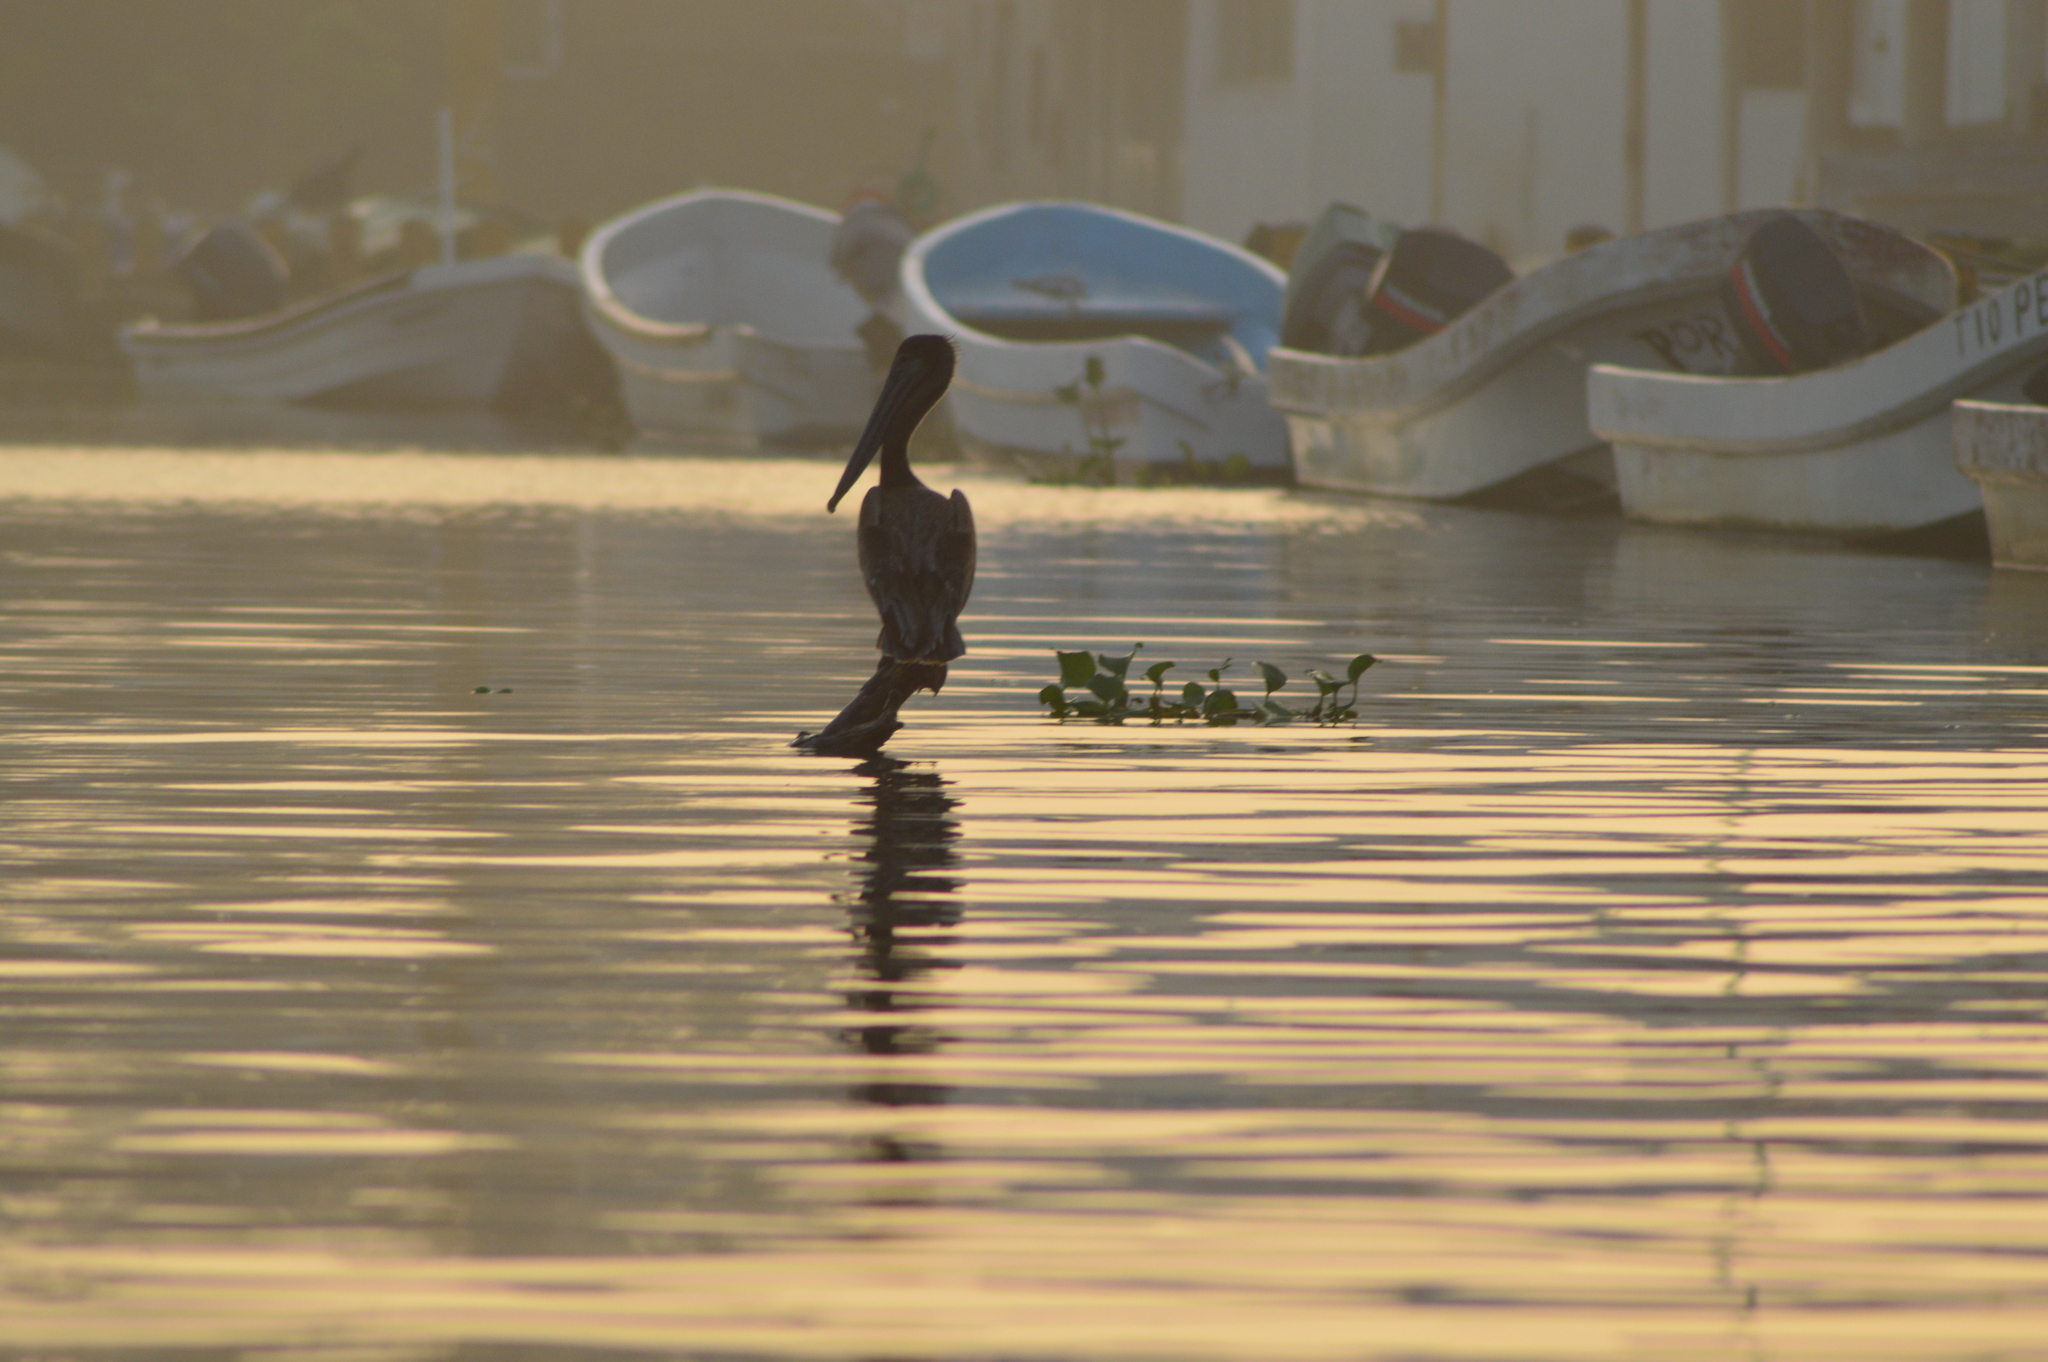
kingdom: Animalia
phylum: Chordata
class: Aves
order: Pelecaniformes
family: Pelecanidae
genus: Pelecanus
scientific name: Pelecanus occidentalis
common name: Brown pelican
